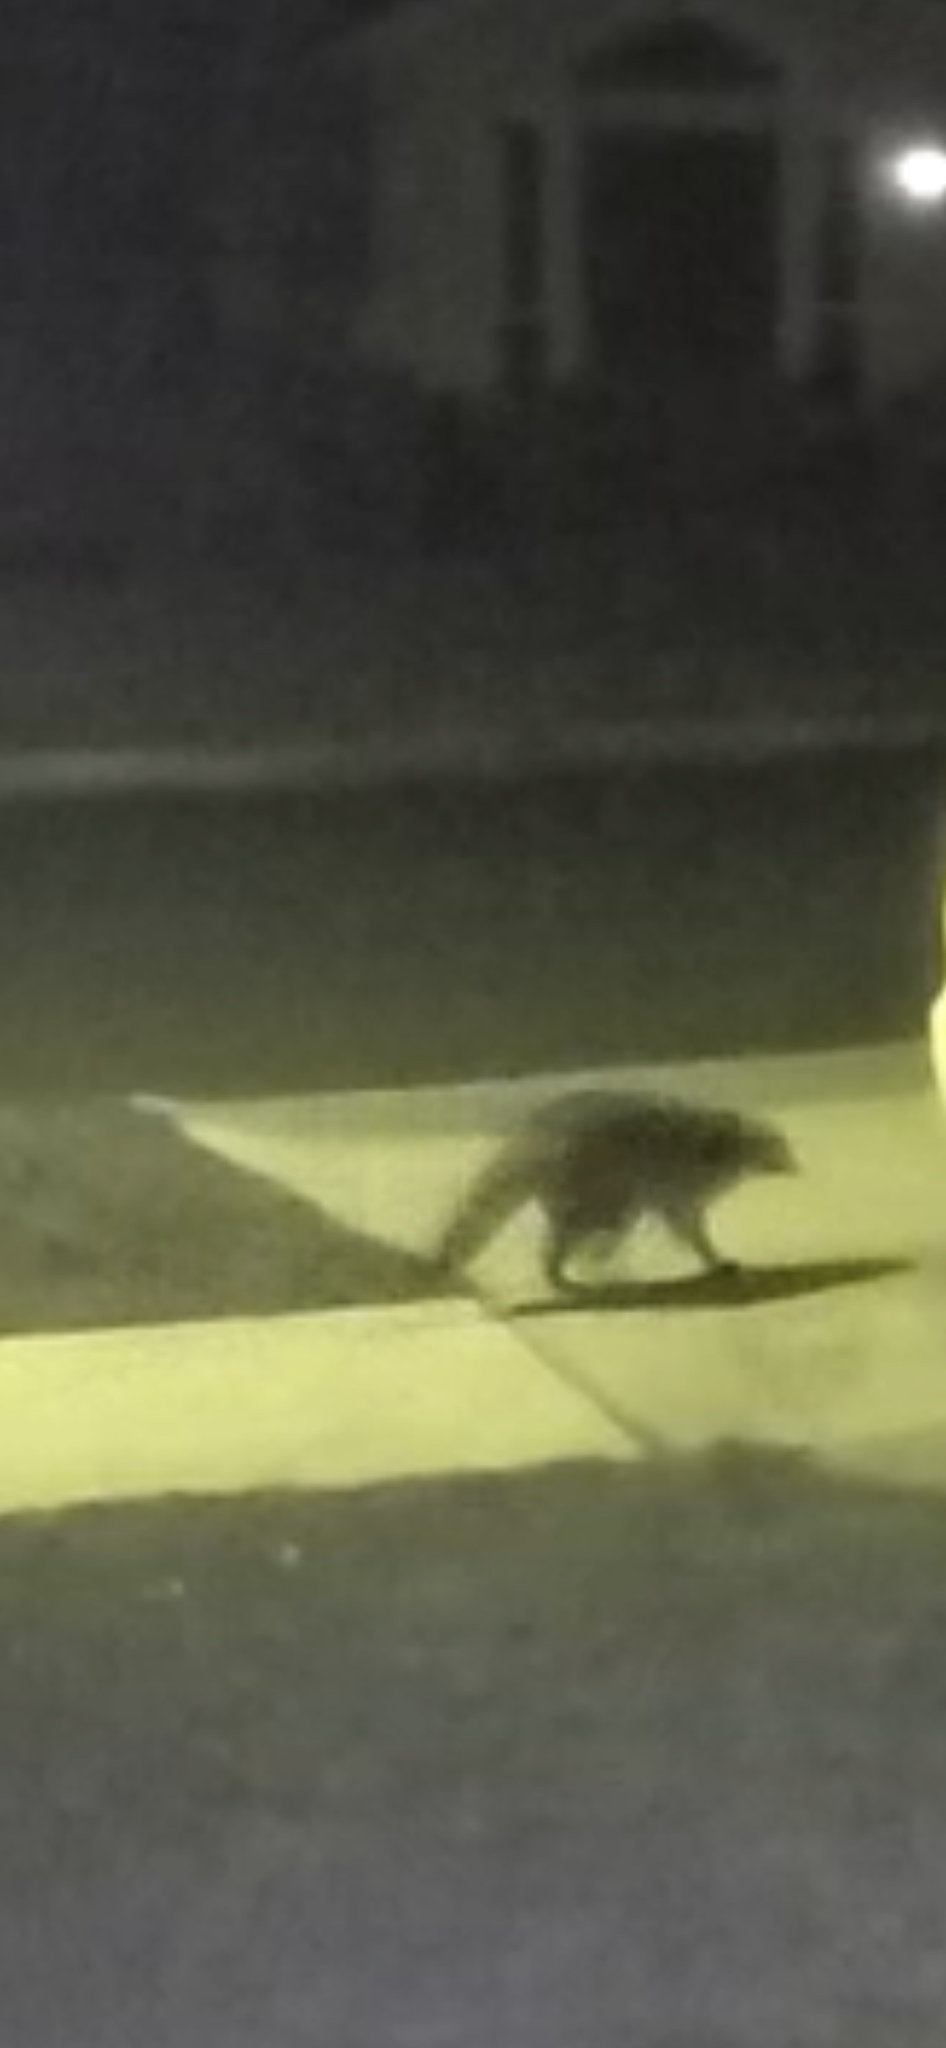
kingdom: Animalia
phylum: Chordata
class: Mammalia
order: Carnivora
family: Procyonidae
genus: Procyon
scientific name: Procyon lotor
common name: Raccoon
